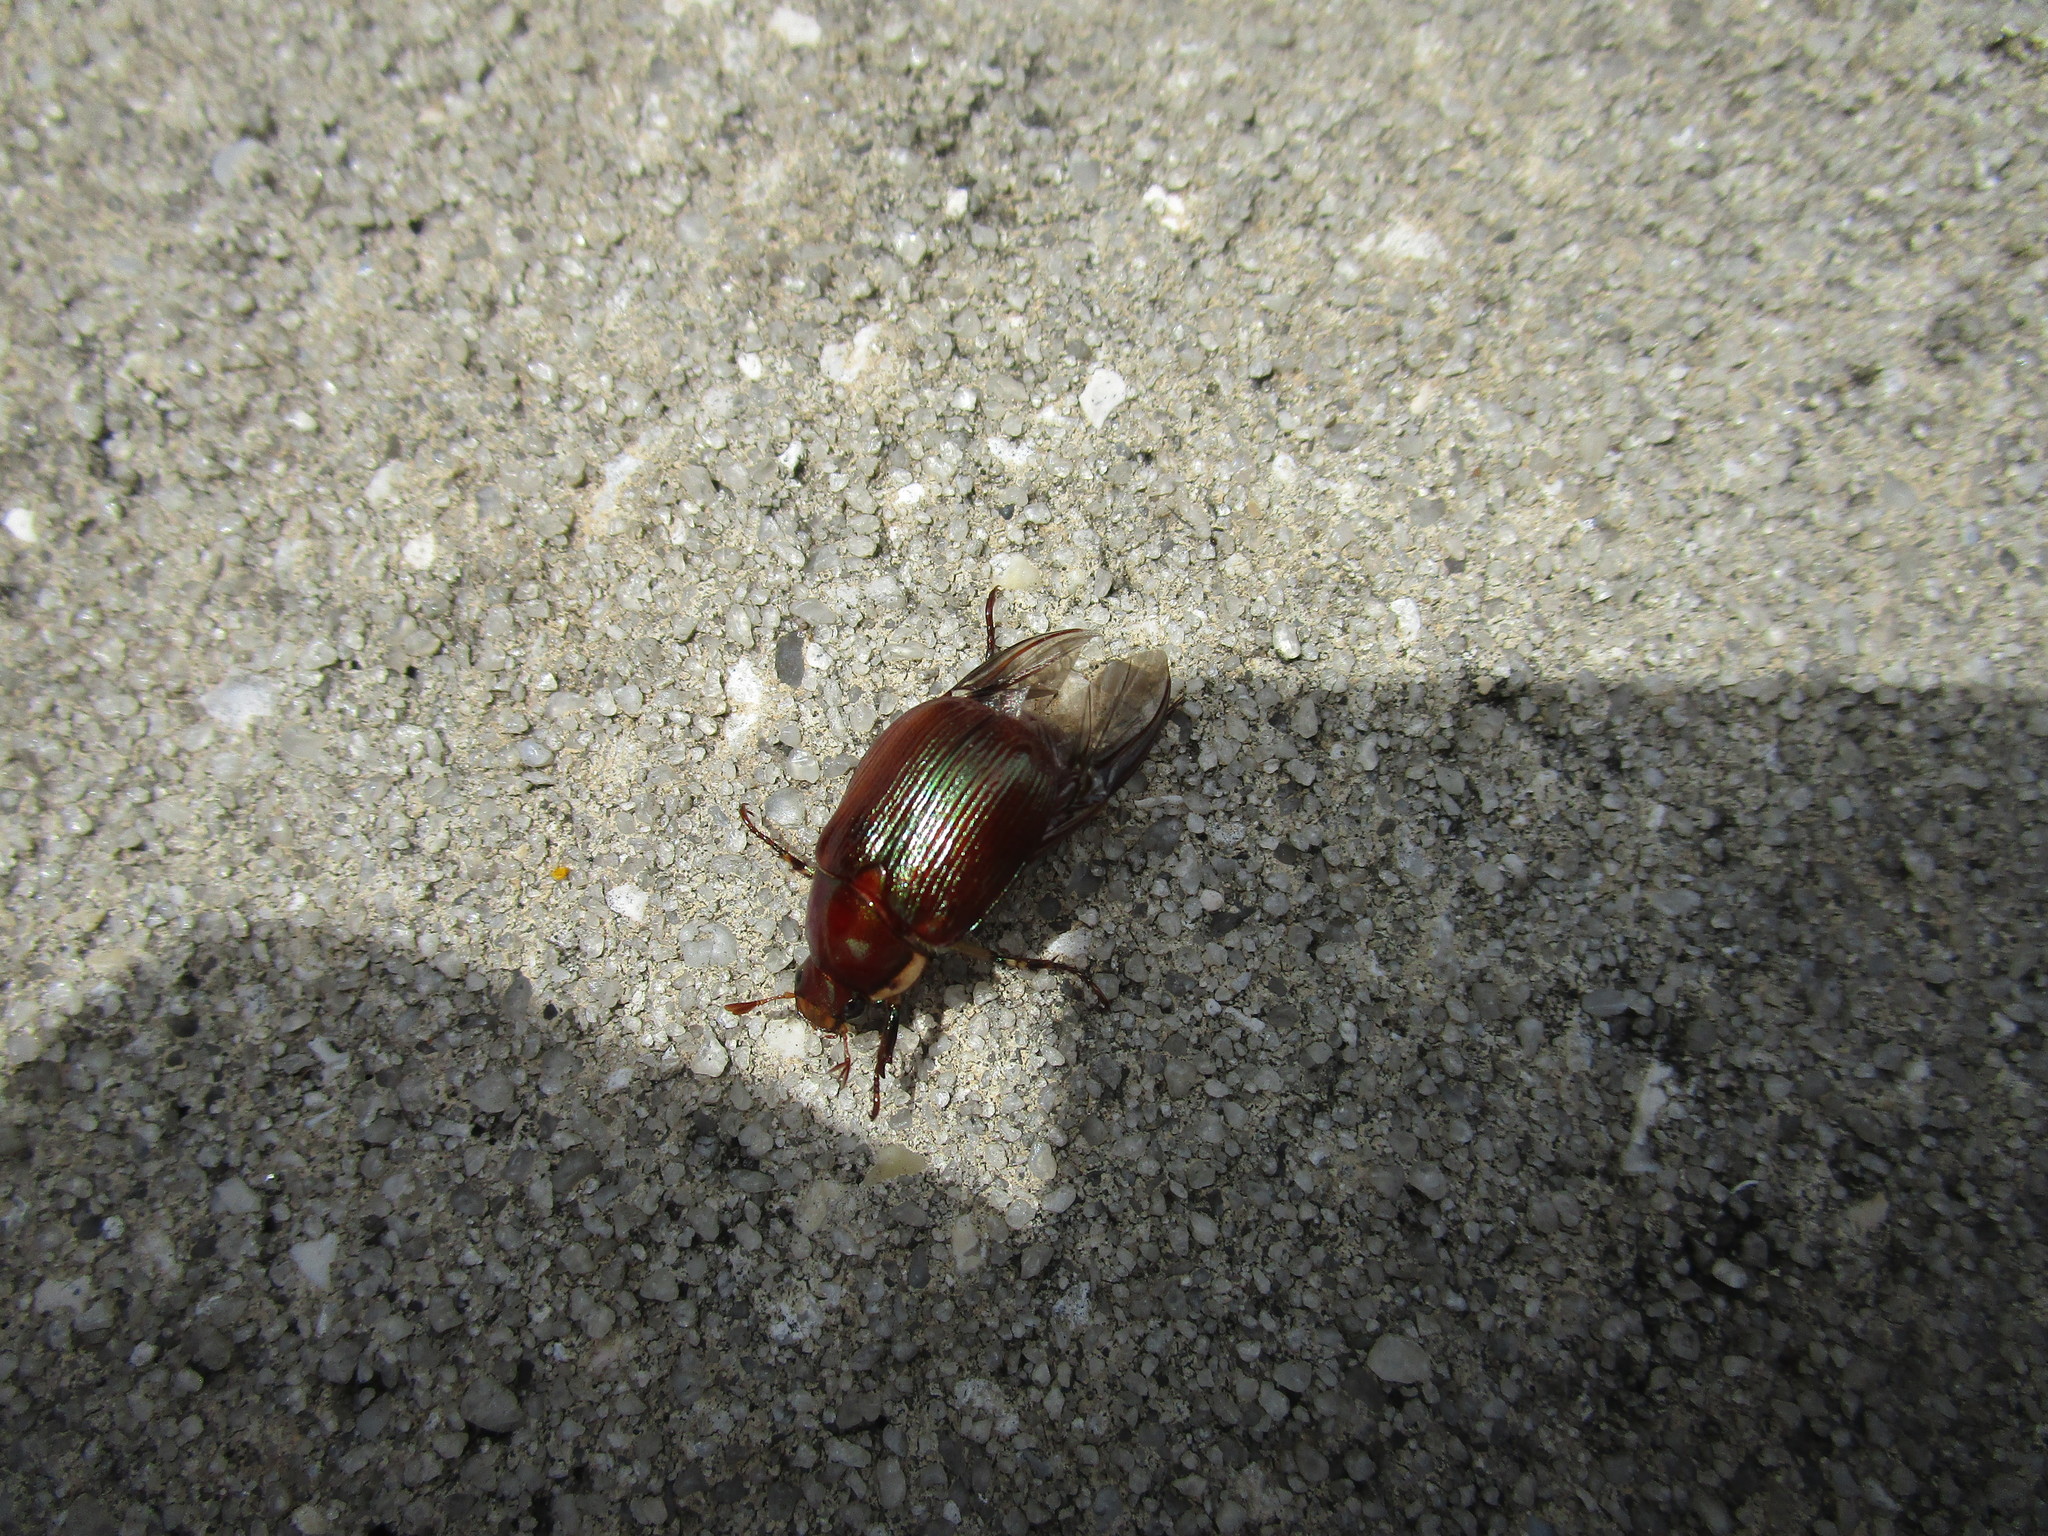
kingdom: Animalia
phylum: Arthropoda
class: Insecta
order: Coleoptera
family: Scarabaeidae
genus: Callistethus
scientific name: Callistethus marginatus
